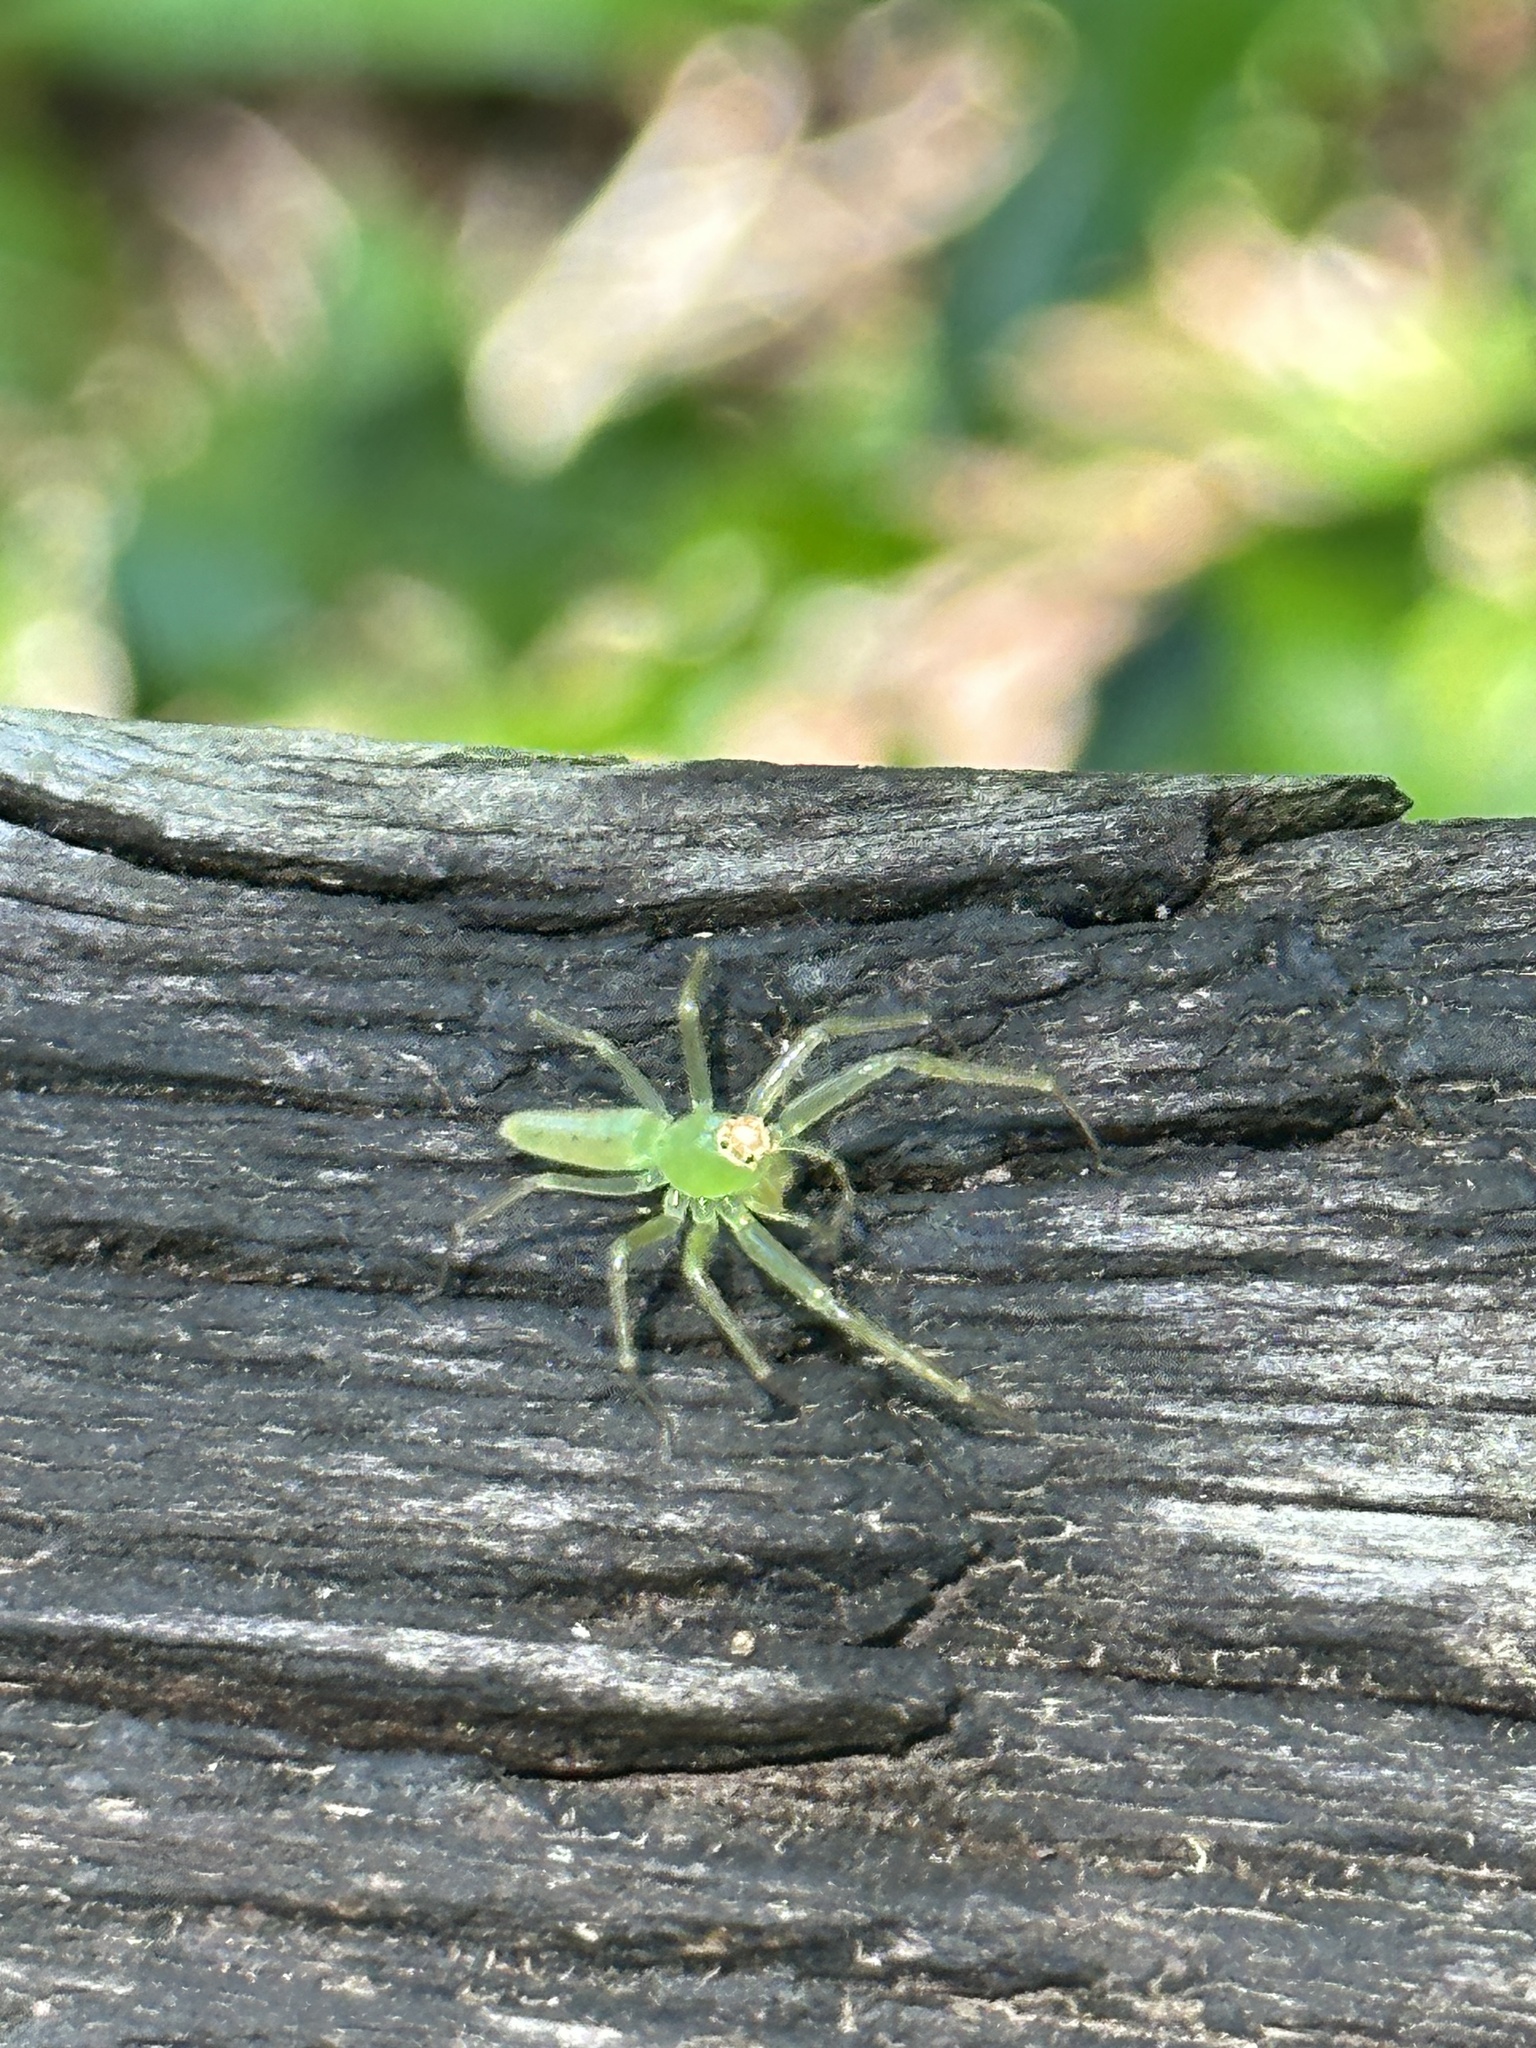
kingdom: Animalia
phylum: Arthropoda
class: Arachnida
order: Araneae
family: Salticidae
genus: Lyssomanes
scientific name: Lyssomanes viridis
